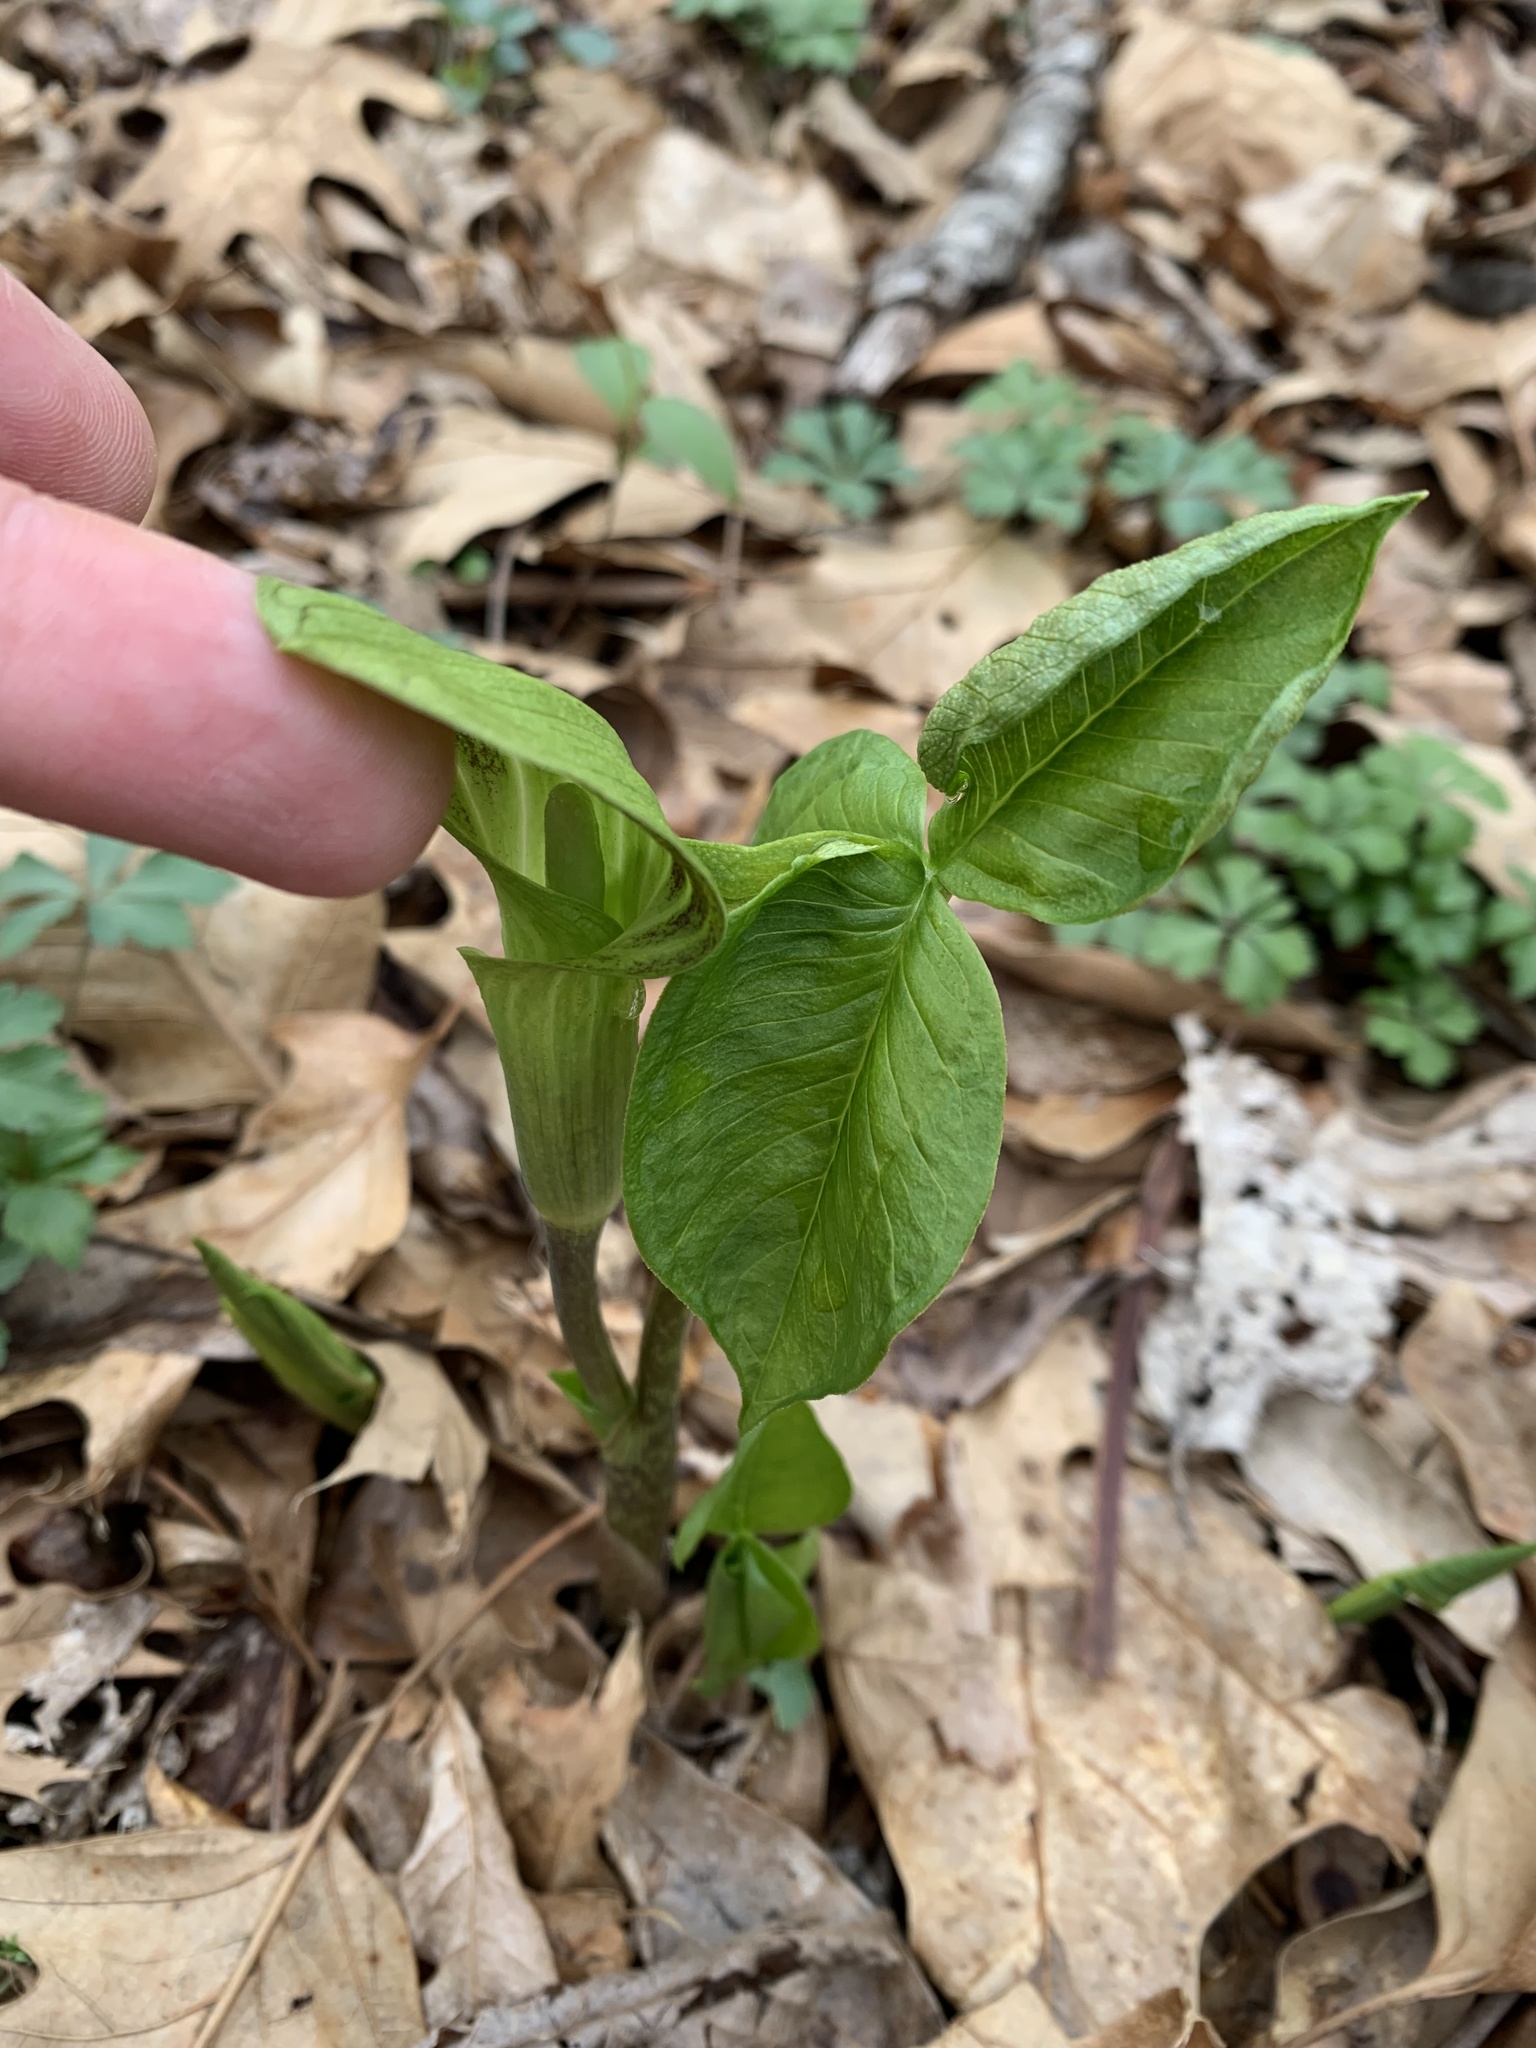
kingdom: Plantae
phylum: Tracheophyta
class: Liliopsida
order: Alismatales
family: Araceae
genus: Arisaema
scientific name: Arisaema triphyllum
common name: Jack-in-the-pulpit
